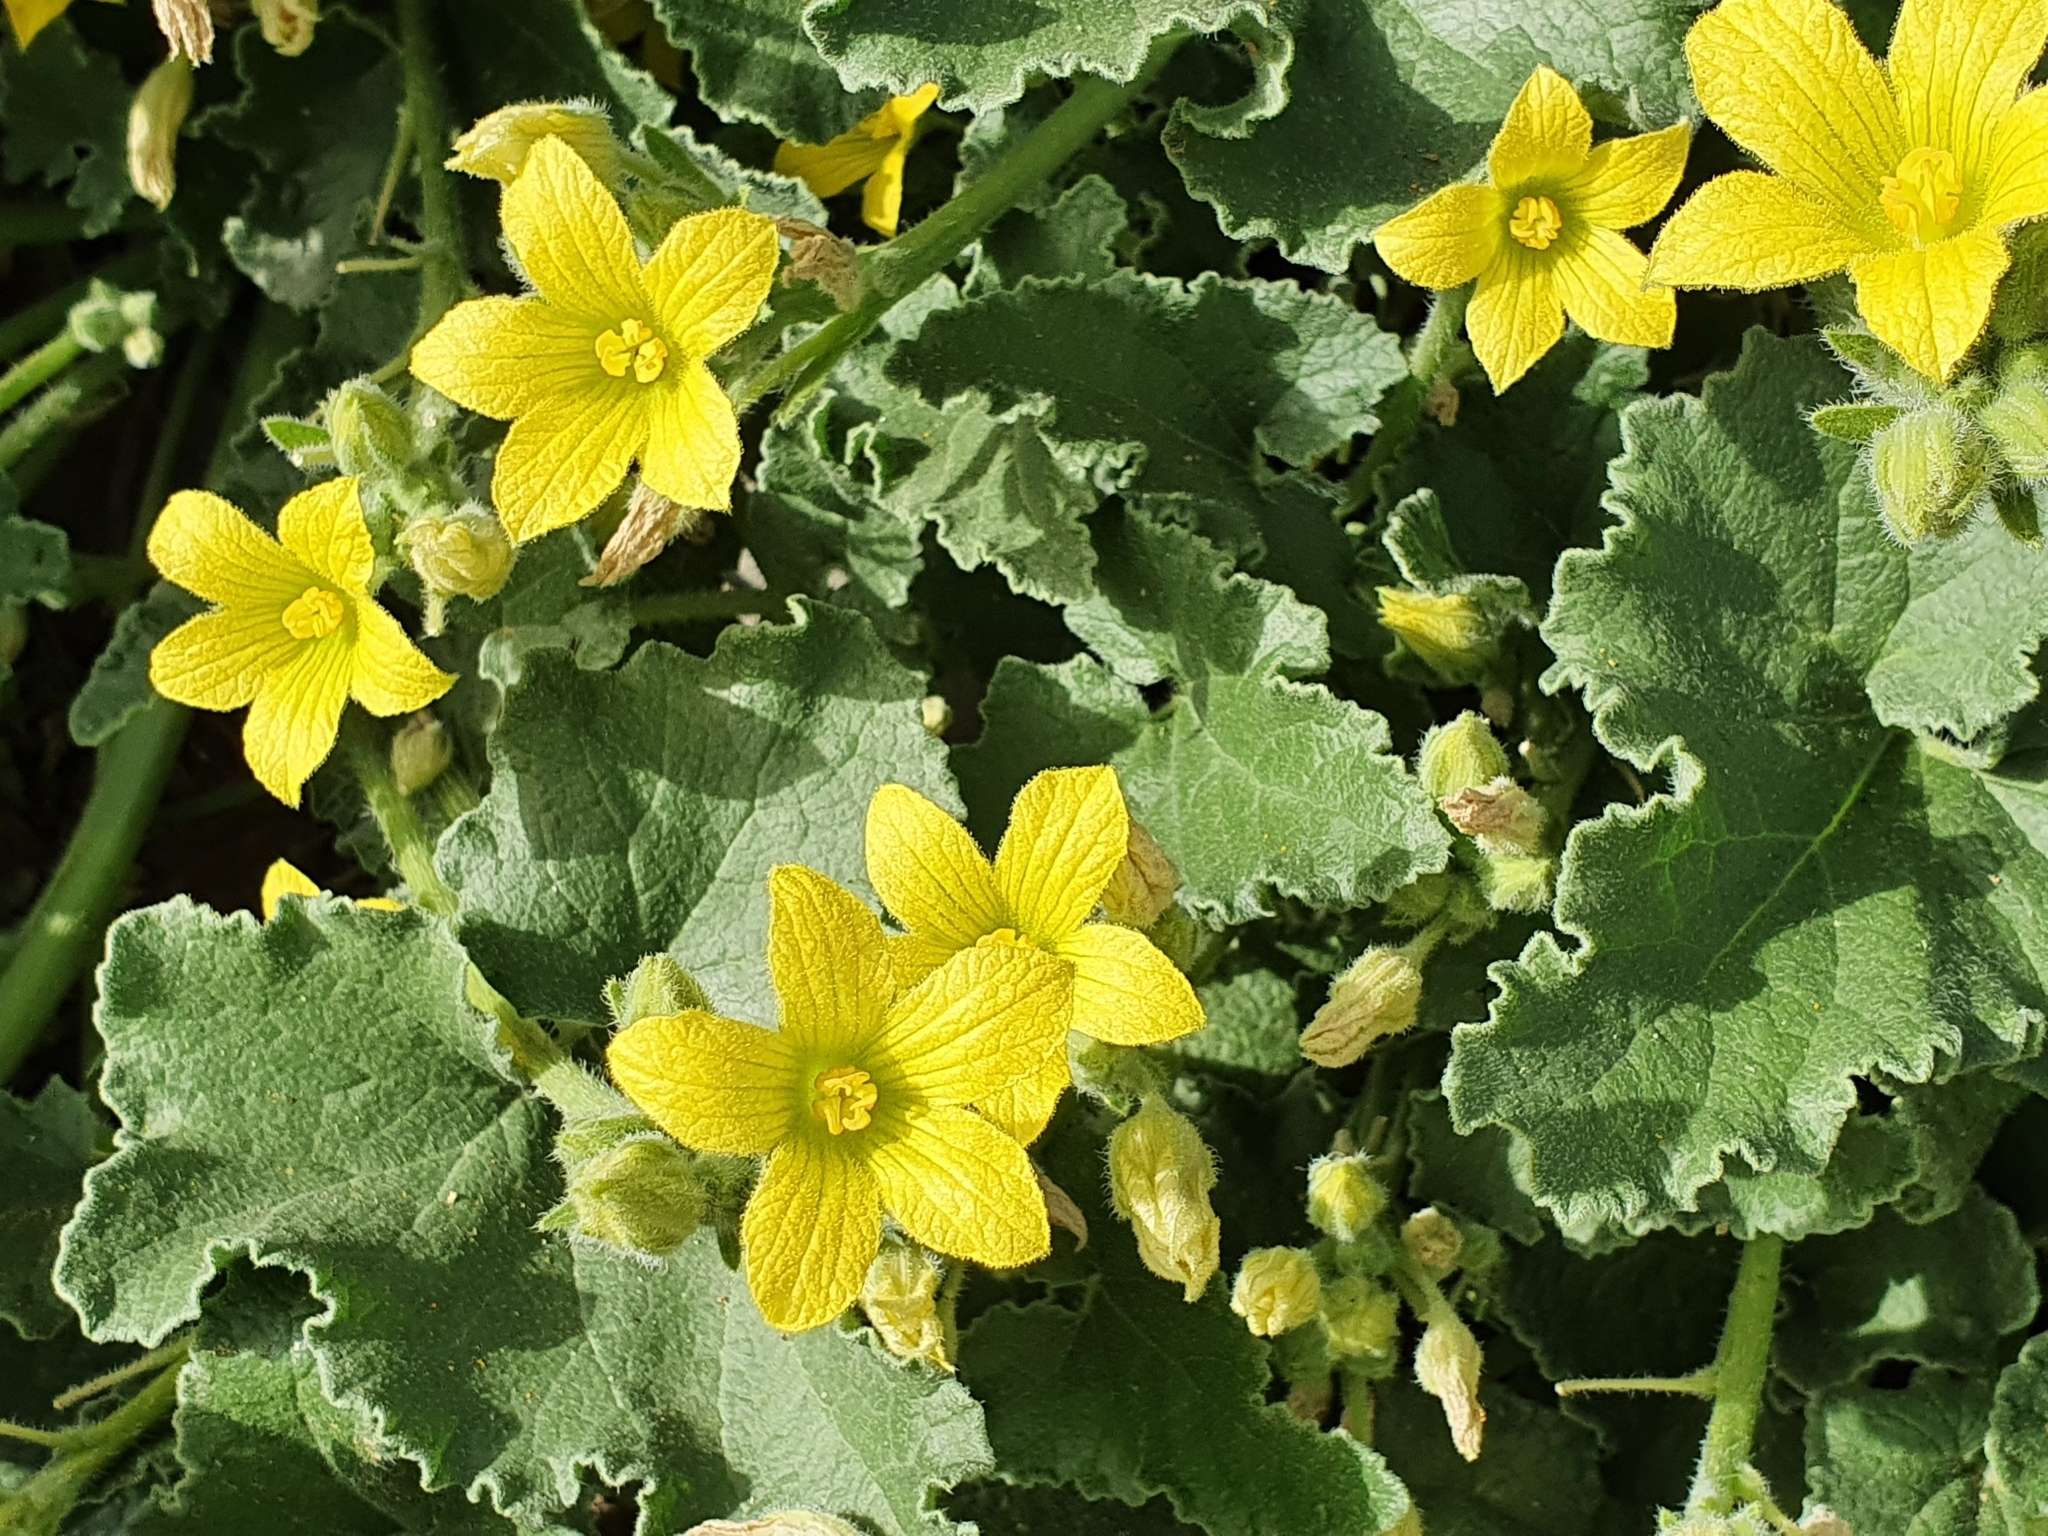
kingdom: Plantae
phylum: Tracheophyta
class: Magnoliopsida
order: Cucurbitales
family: Cucurbitaceae
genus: Ecballium
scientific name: Ecballium elaterium
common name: Squirting cucumber
